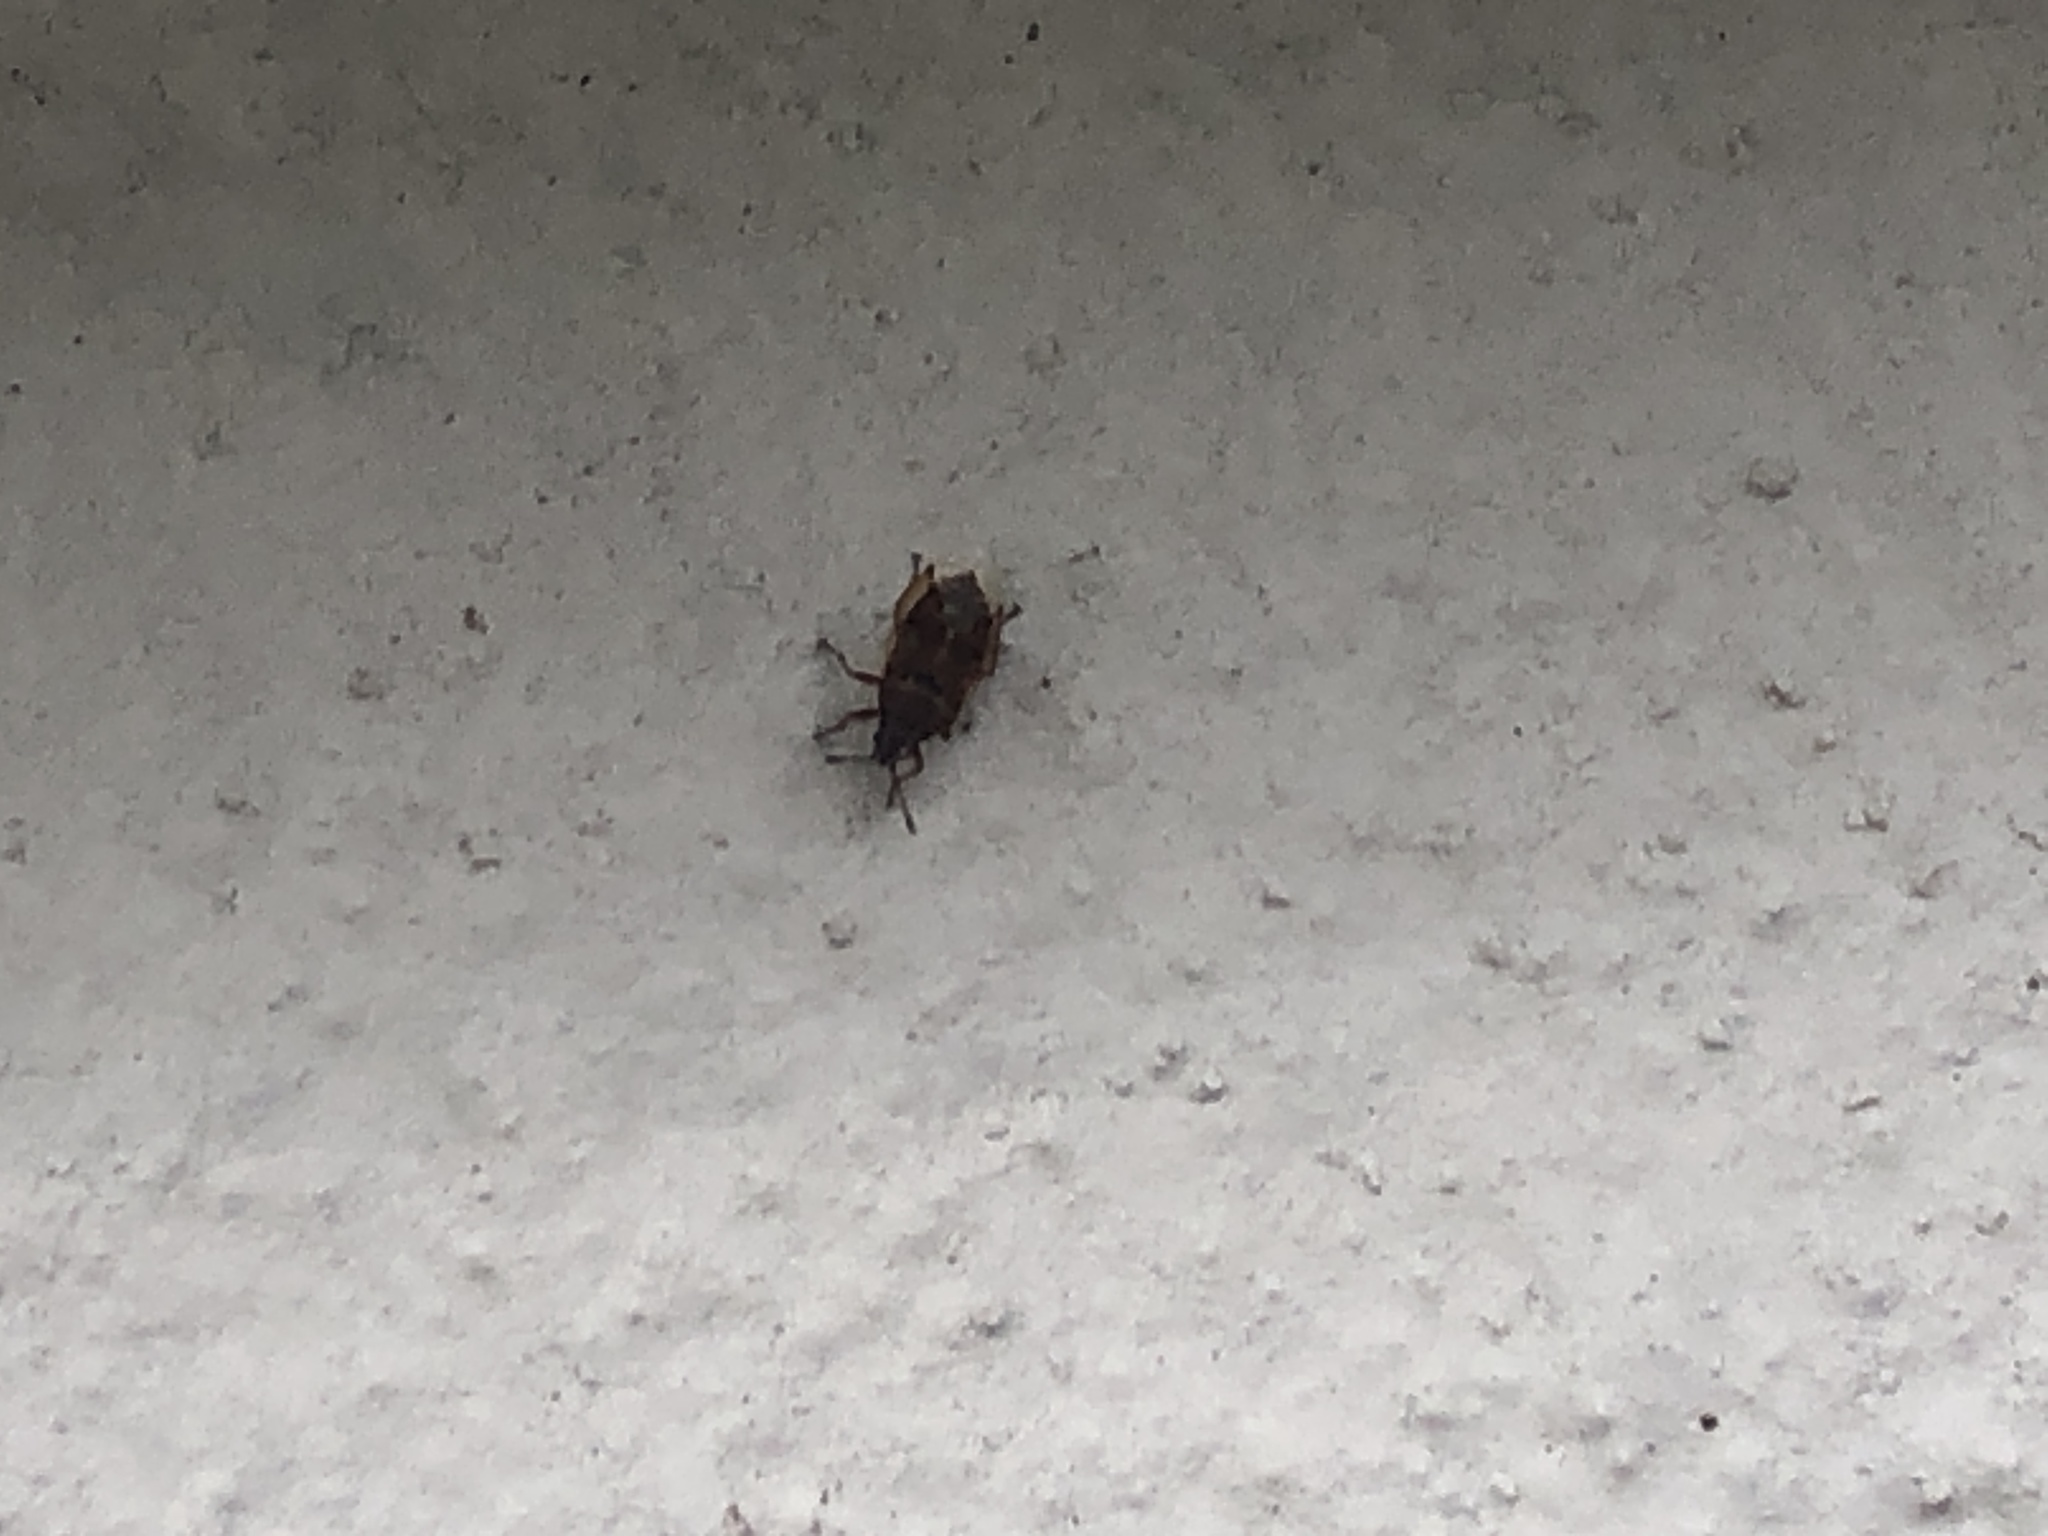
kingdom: Animalia
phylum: Arthropoda
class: Insecta
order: Hemiptera
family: Lygaeidae
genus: Kleidocerys
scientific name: Kleidocerys resedae
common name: Birch catkin bug
